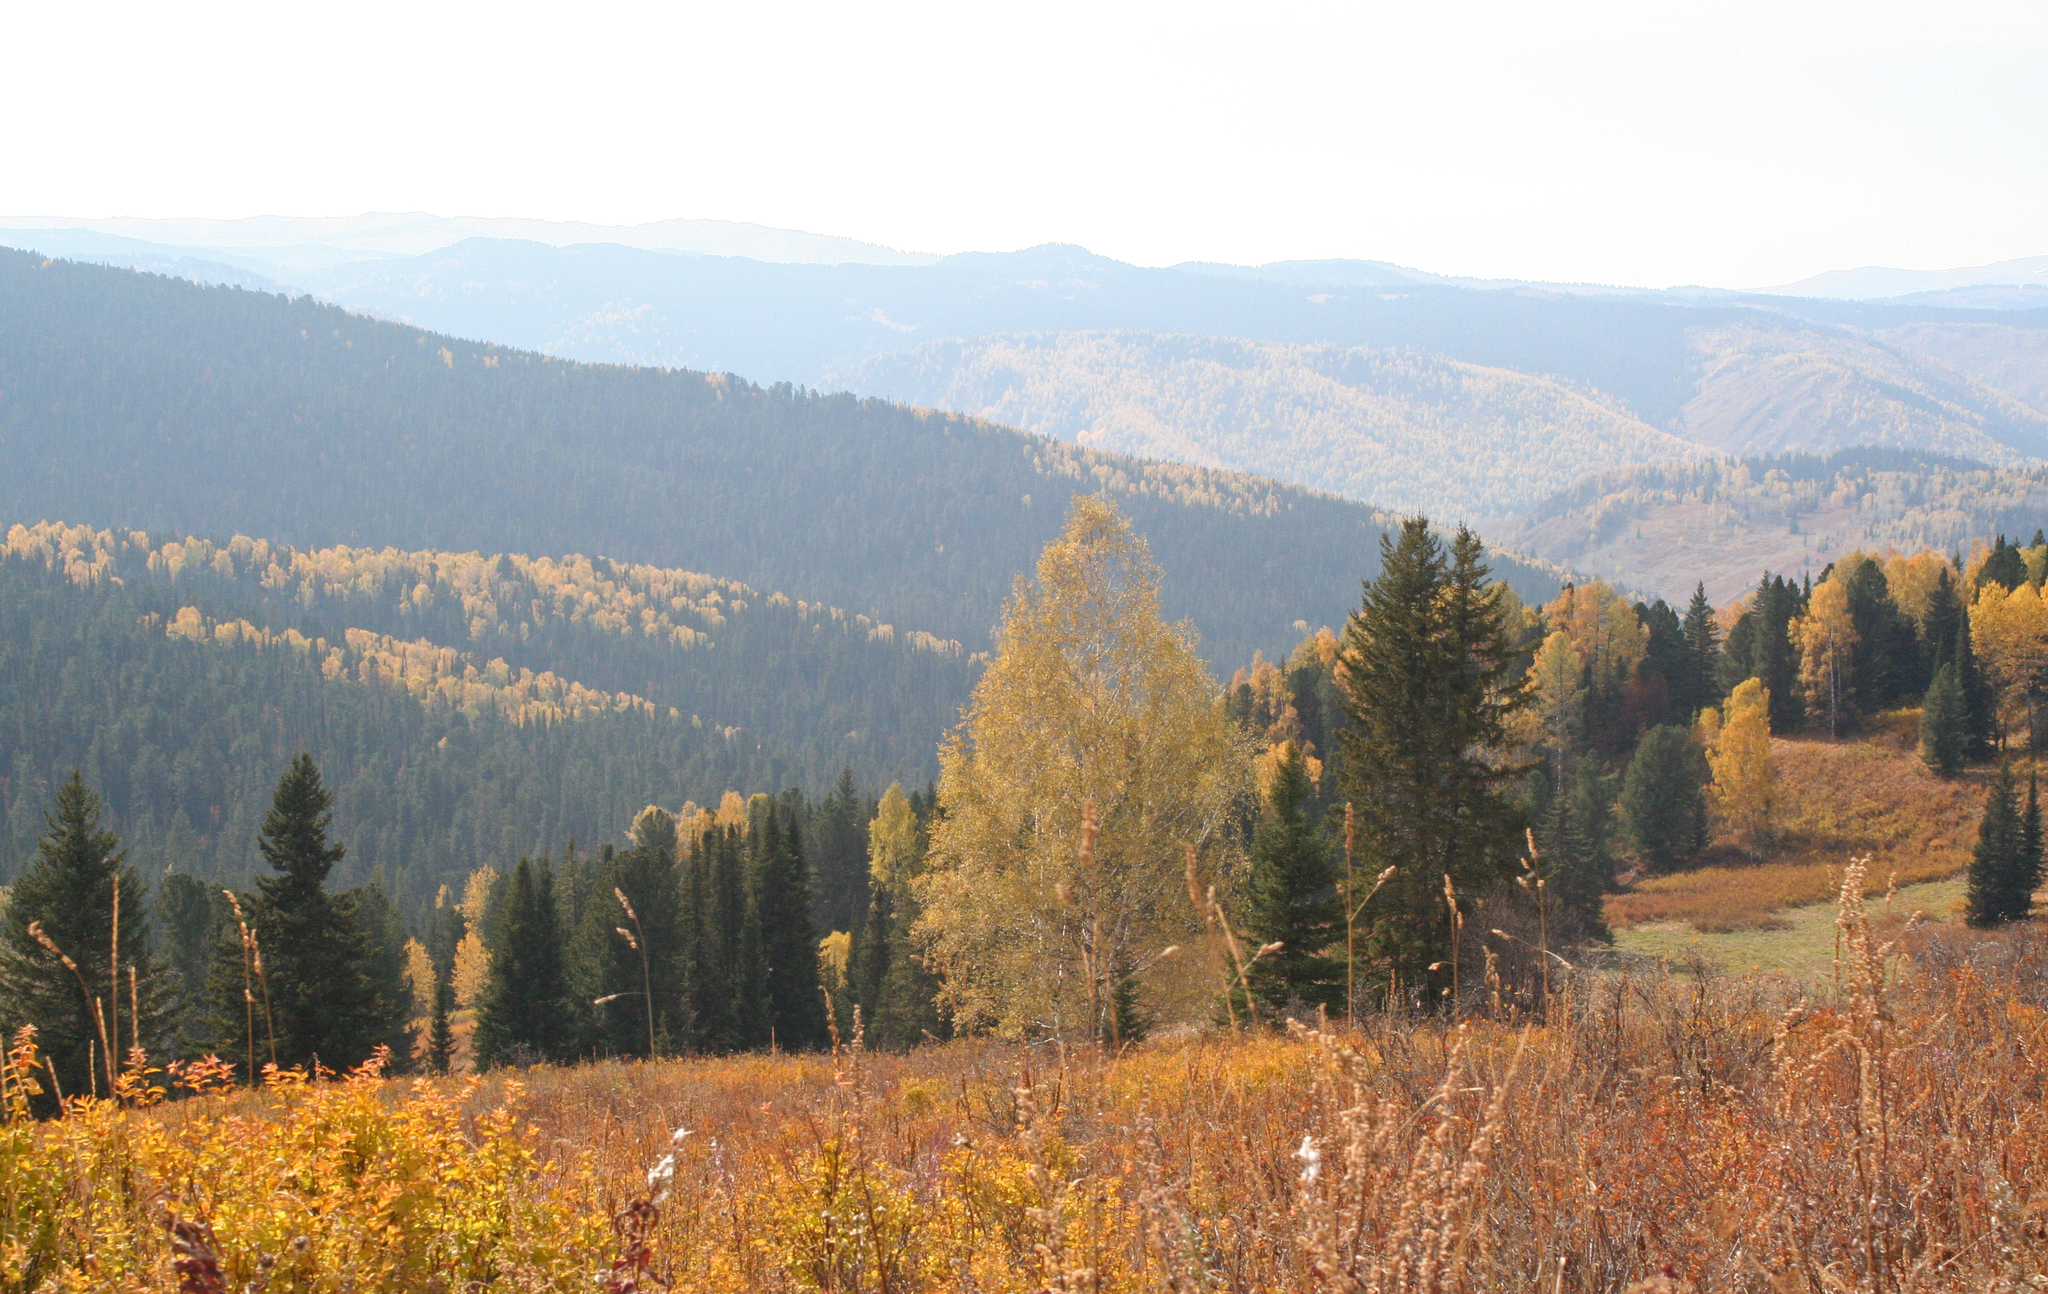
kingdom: Plantae
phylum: Tracheophyta
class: Magnoliopsida
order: Fagales
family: Betulaceae
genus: Betula
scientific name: Betula pendula
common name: Silver birch
